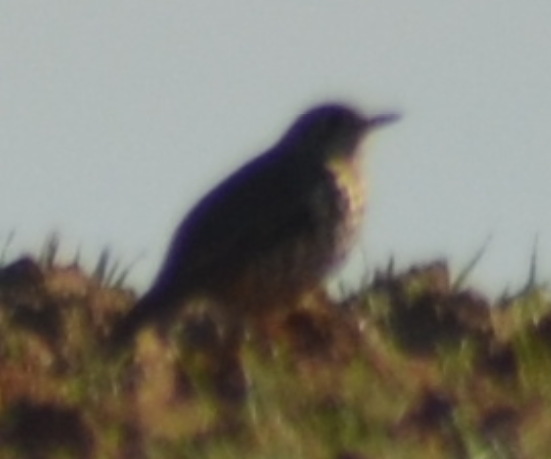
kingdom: Animalia
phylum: Chordata
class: Aves
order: Passeriformes
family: Turdidae
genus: Turdus
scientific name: Turdus viscivorus
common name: Mistle thrush
